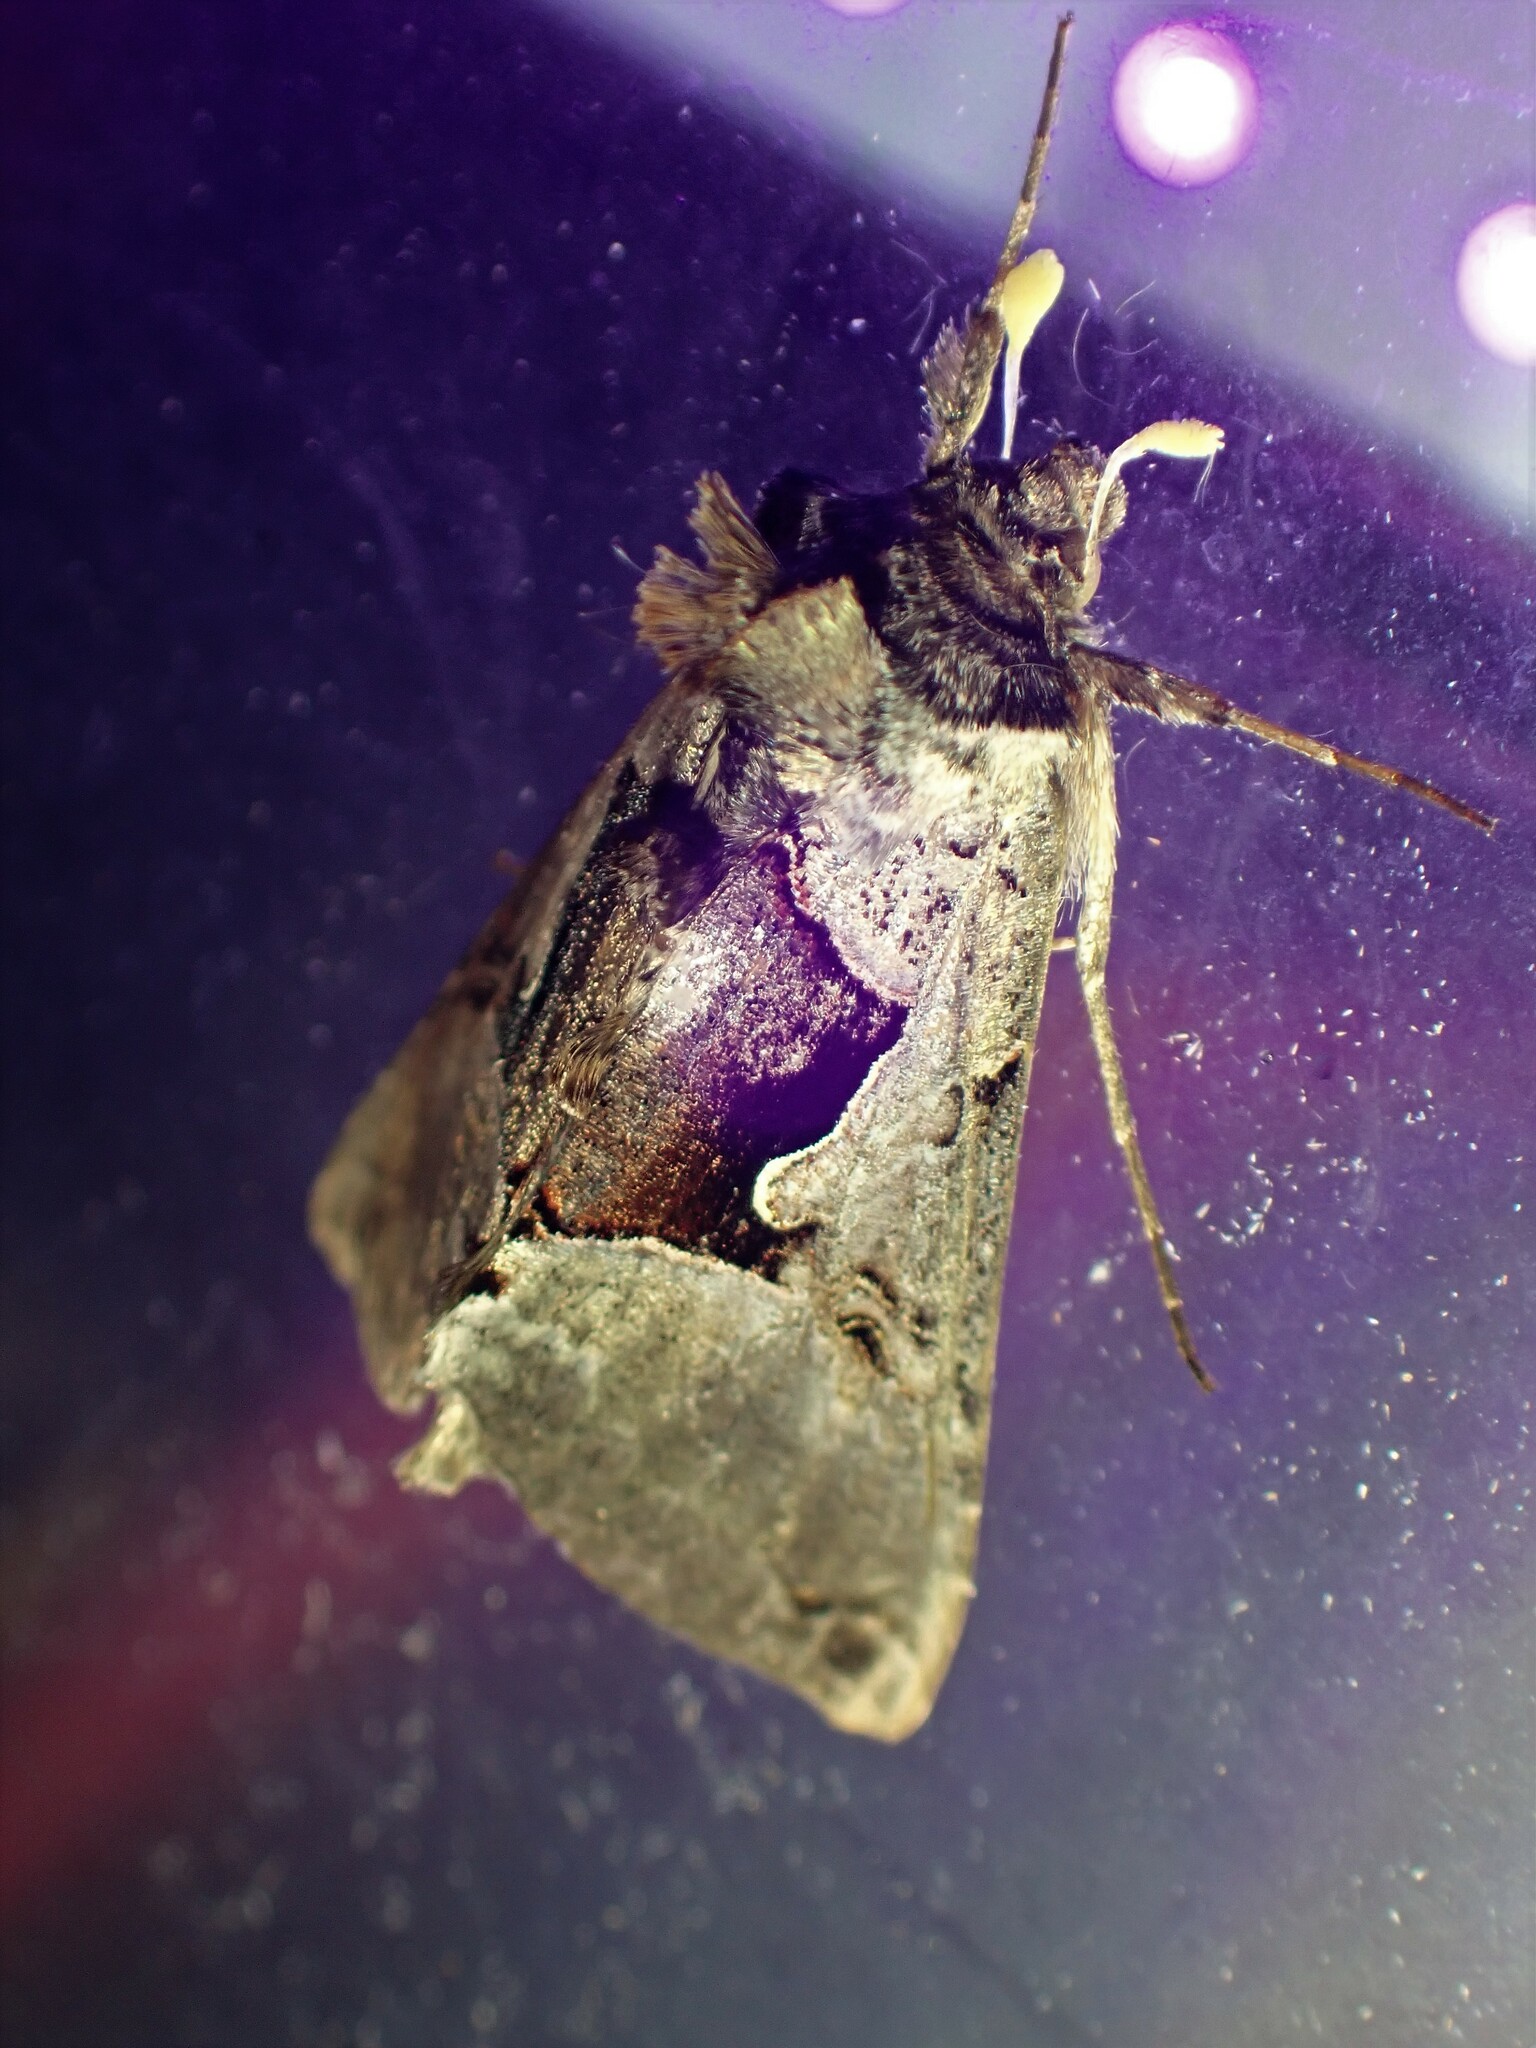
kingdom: Animalia
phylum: Arthropoda
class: Insecta
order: Lepidoptera
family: Noctuidae
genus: Autographa
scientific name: Autographa ampla
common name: Large looper moth
